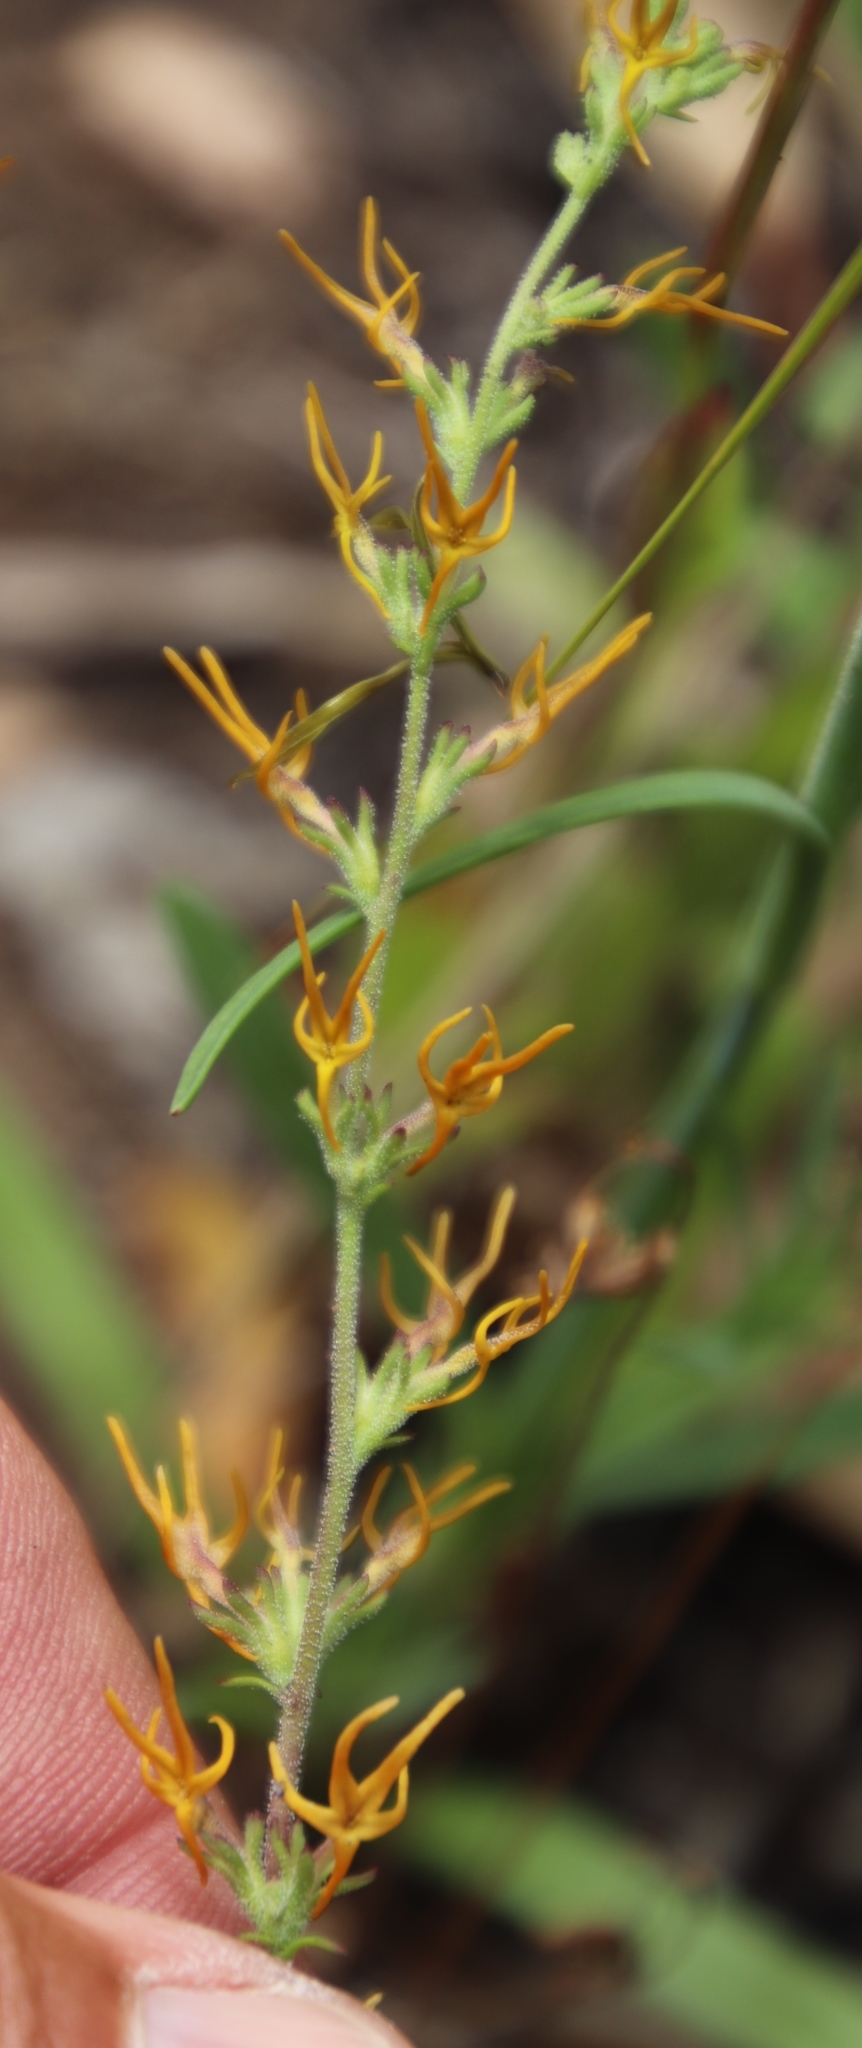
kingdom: Plantae
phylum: Tracheophyta
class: Magnoliopsida
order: Lamiales
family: Scrophulariaceae
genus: Manulea
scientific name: Manulea cheiranthus
